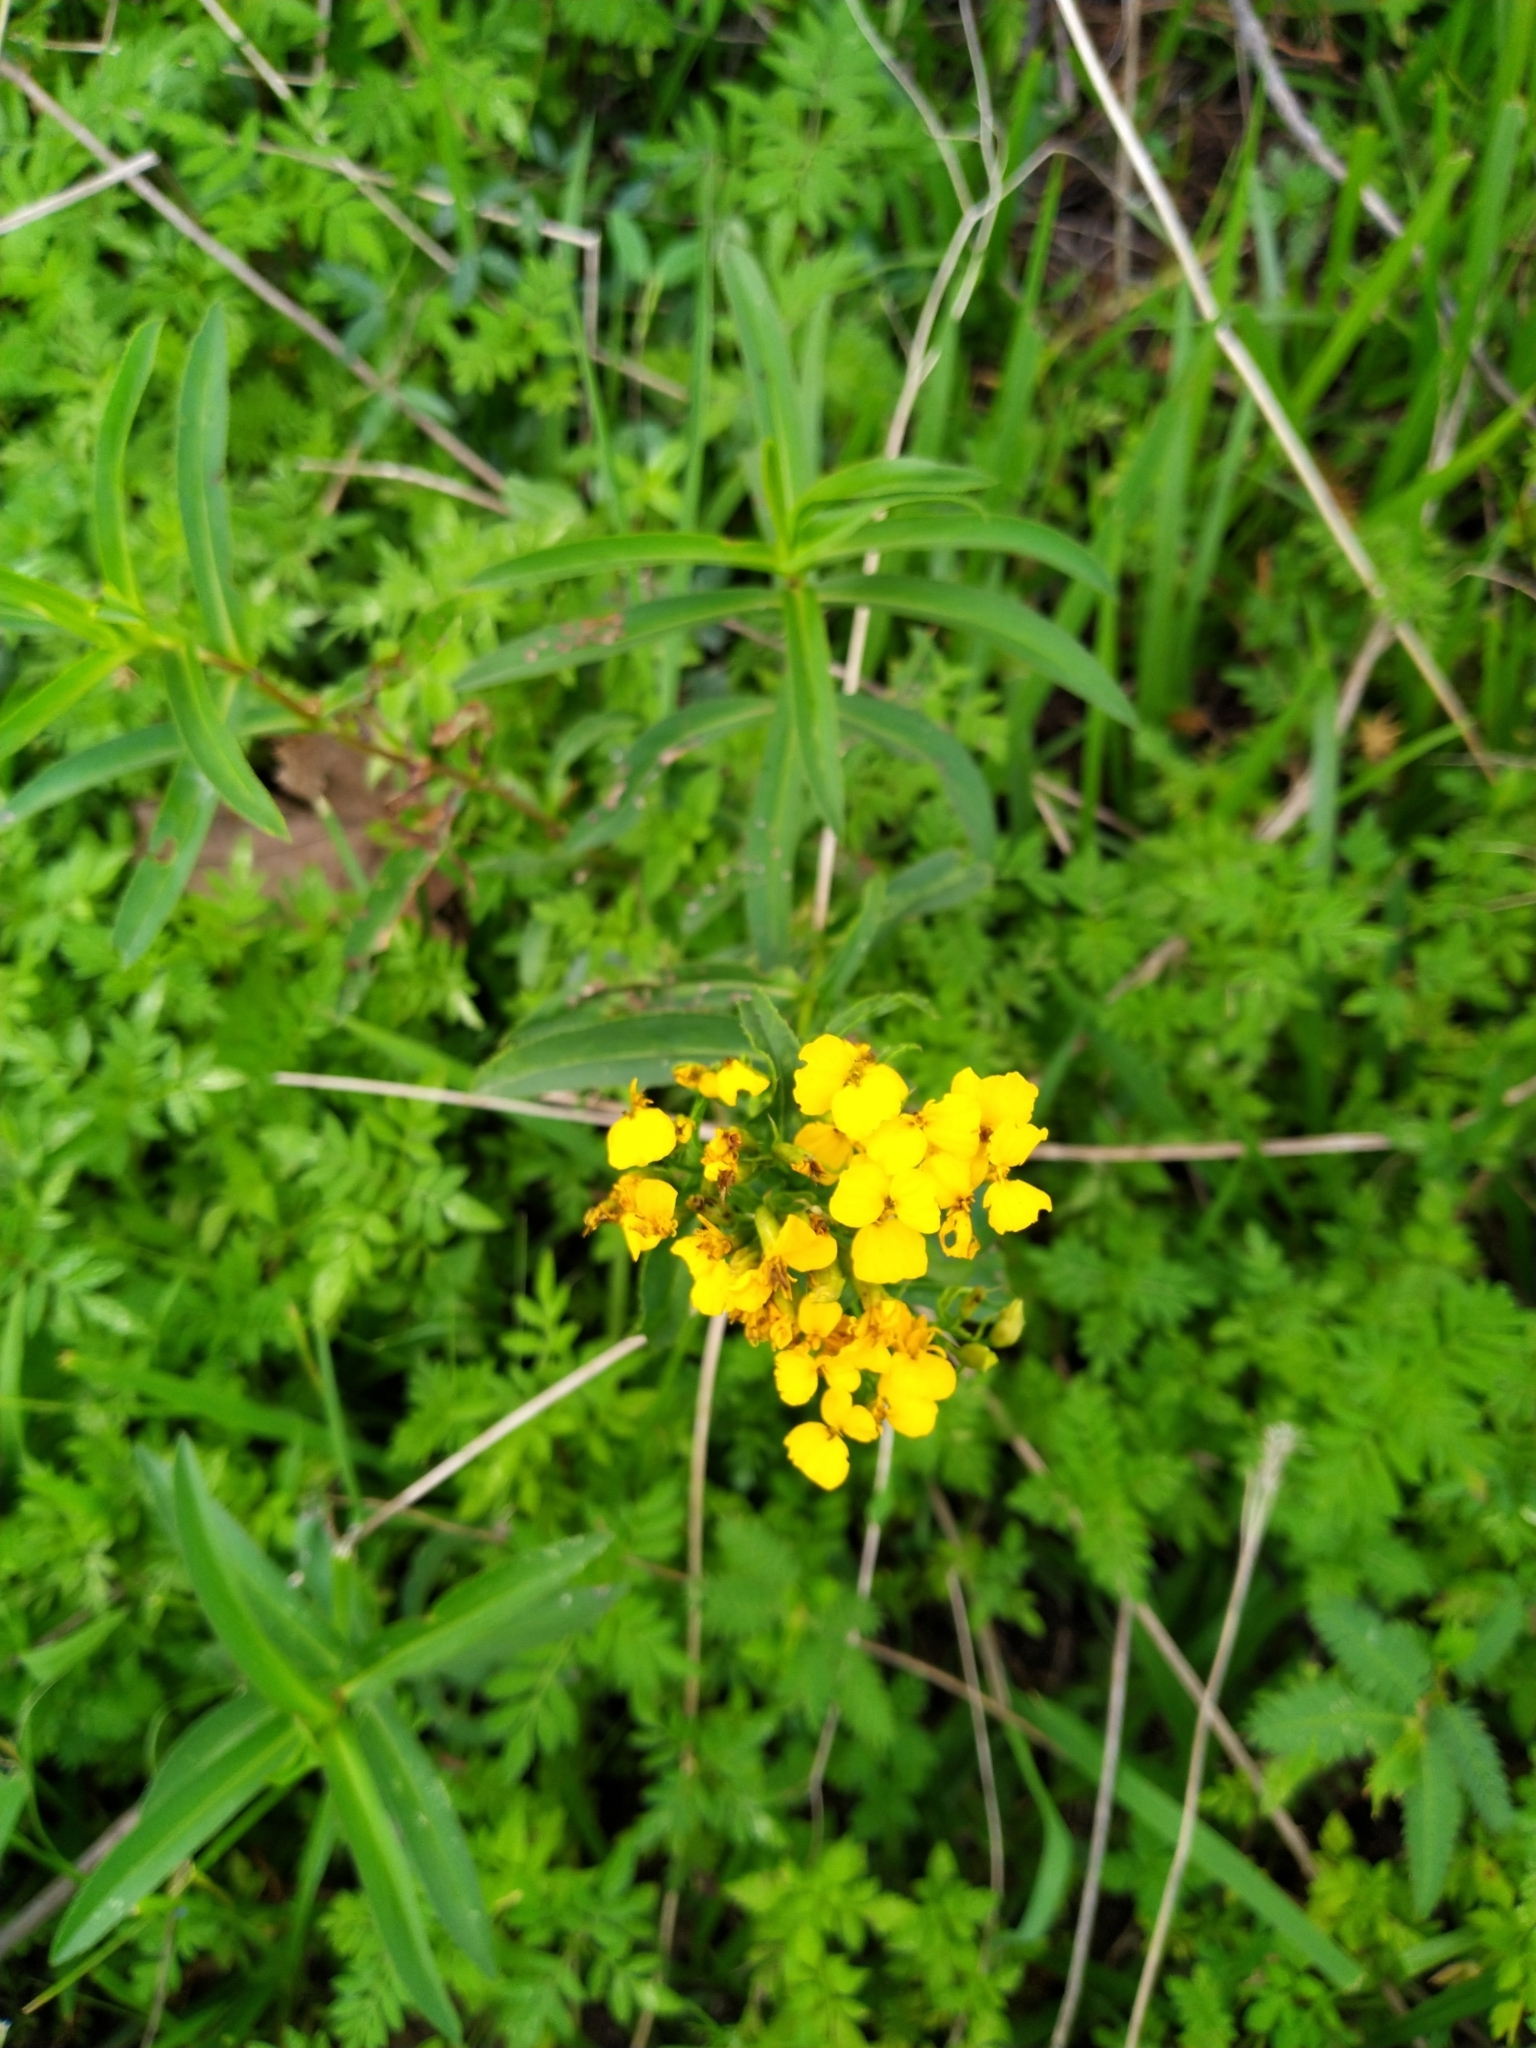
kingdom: Plantae
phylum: Tracheophyta
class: Magnoliopsida
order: Asterales
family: Asteraceae
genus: Tagetes
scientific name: Tagetes lucida
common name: Sweetscented marigold
